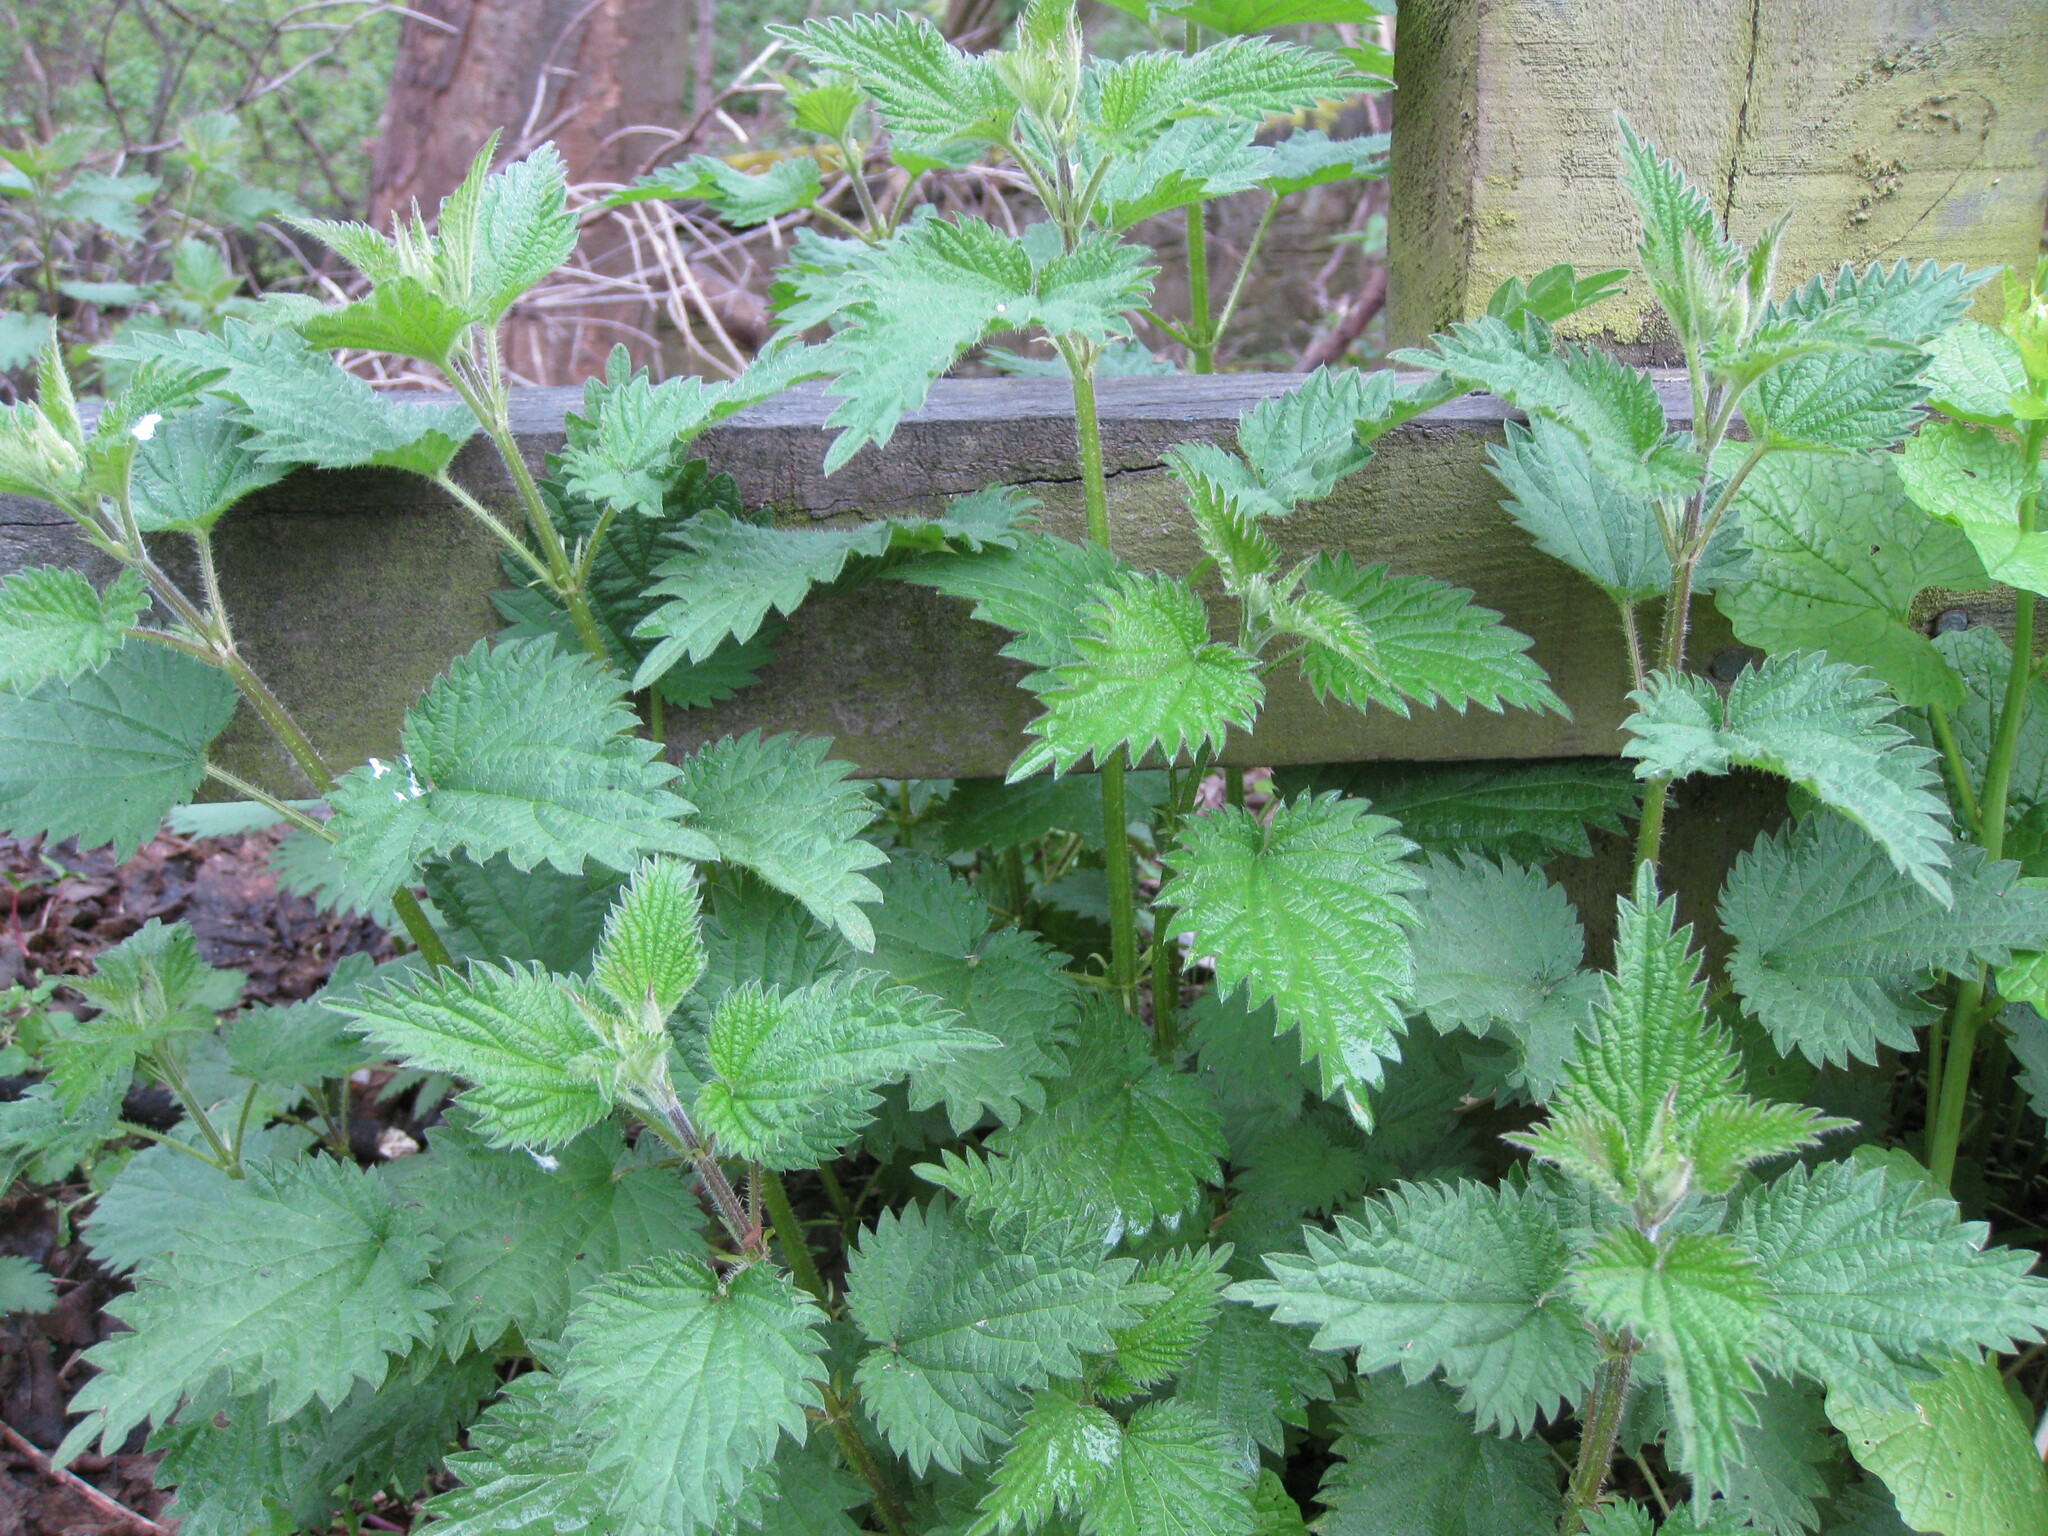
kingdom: Plantae
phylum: Tracheophyta
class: Magnoliopsida
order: Rosales
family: Urticaceae
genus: Urtica
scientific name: Urtica dioica
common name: Common nettle
